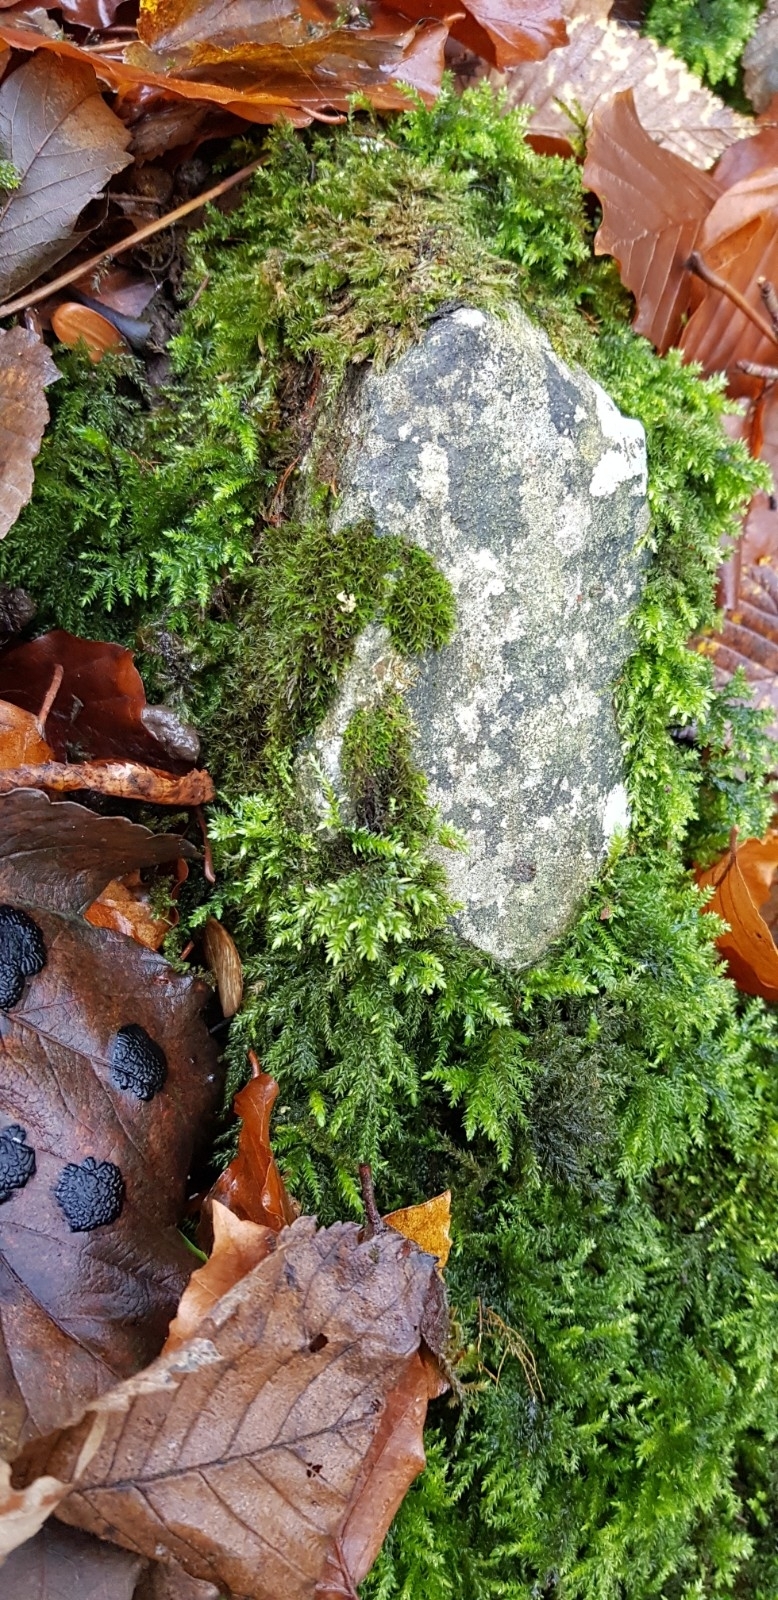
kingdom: Plantae
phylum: Bryophyta
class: Bryopsida
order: Grimmiales
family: Grimmiaceae
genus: Schistidium
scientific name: Schistidium crassipilum
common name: Thickpoint bloom moss
